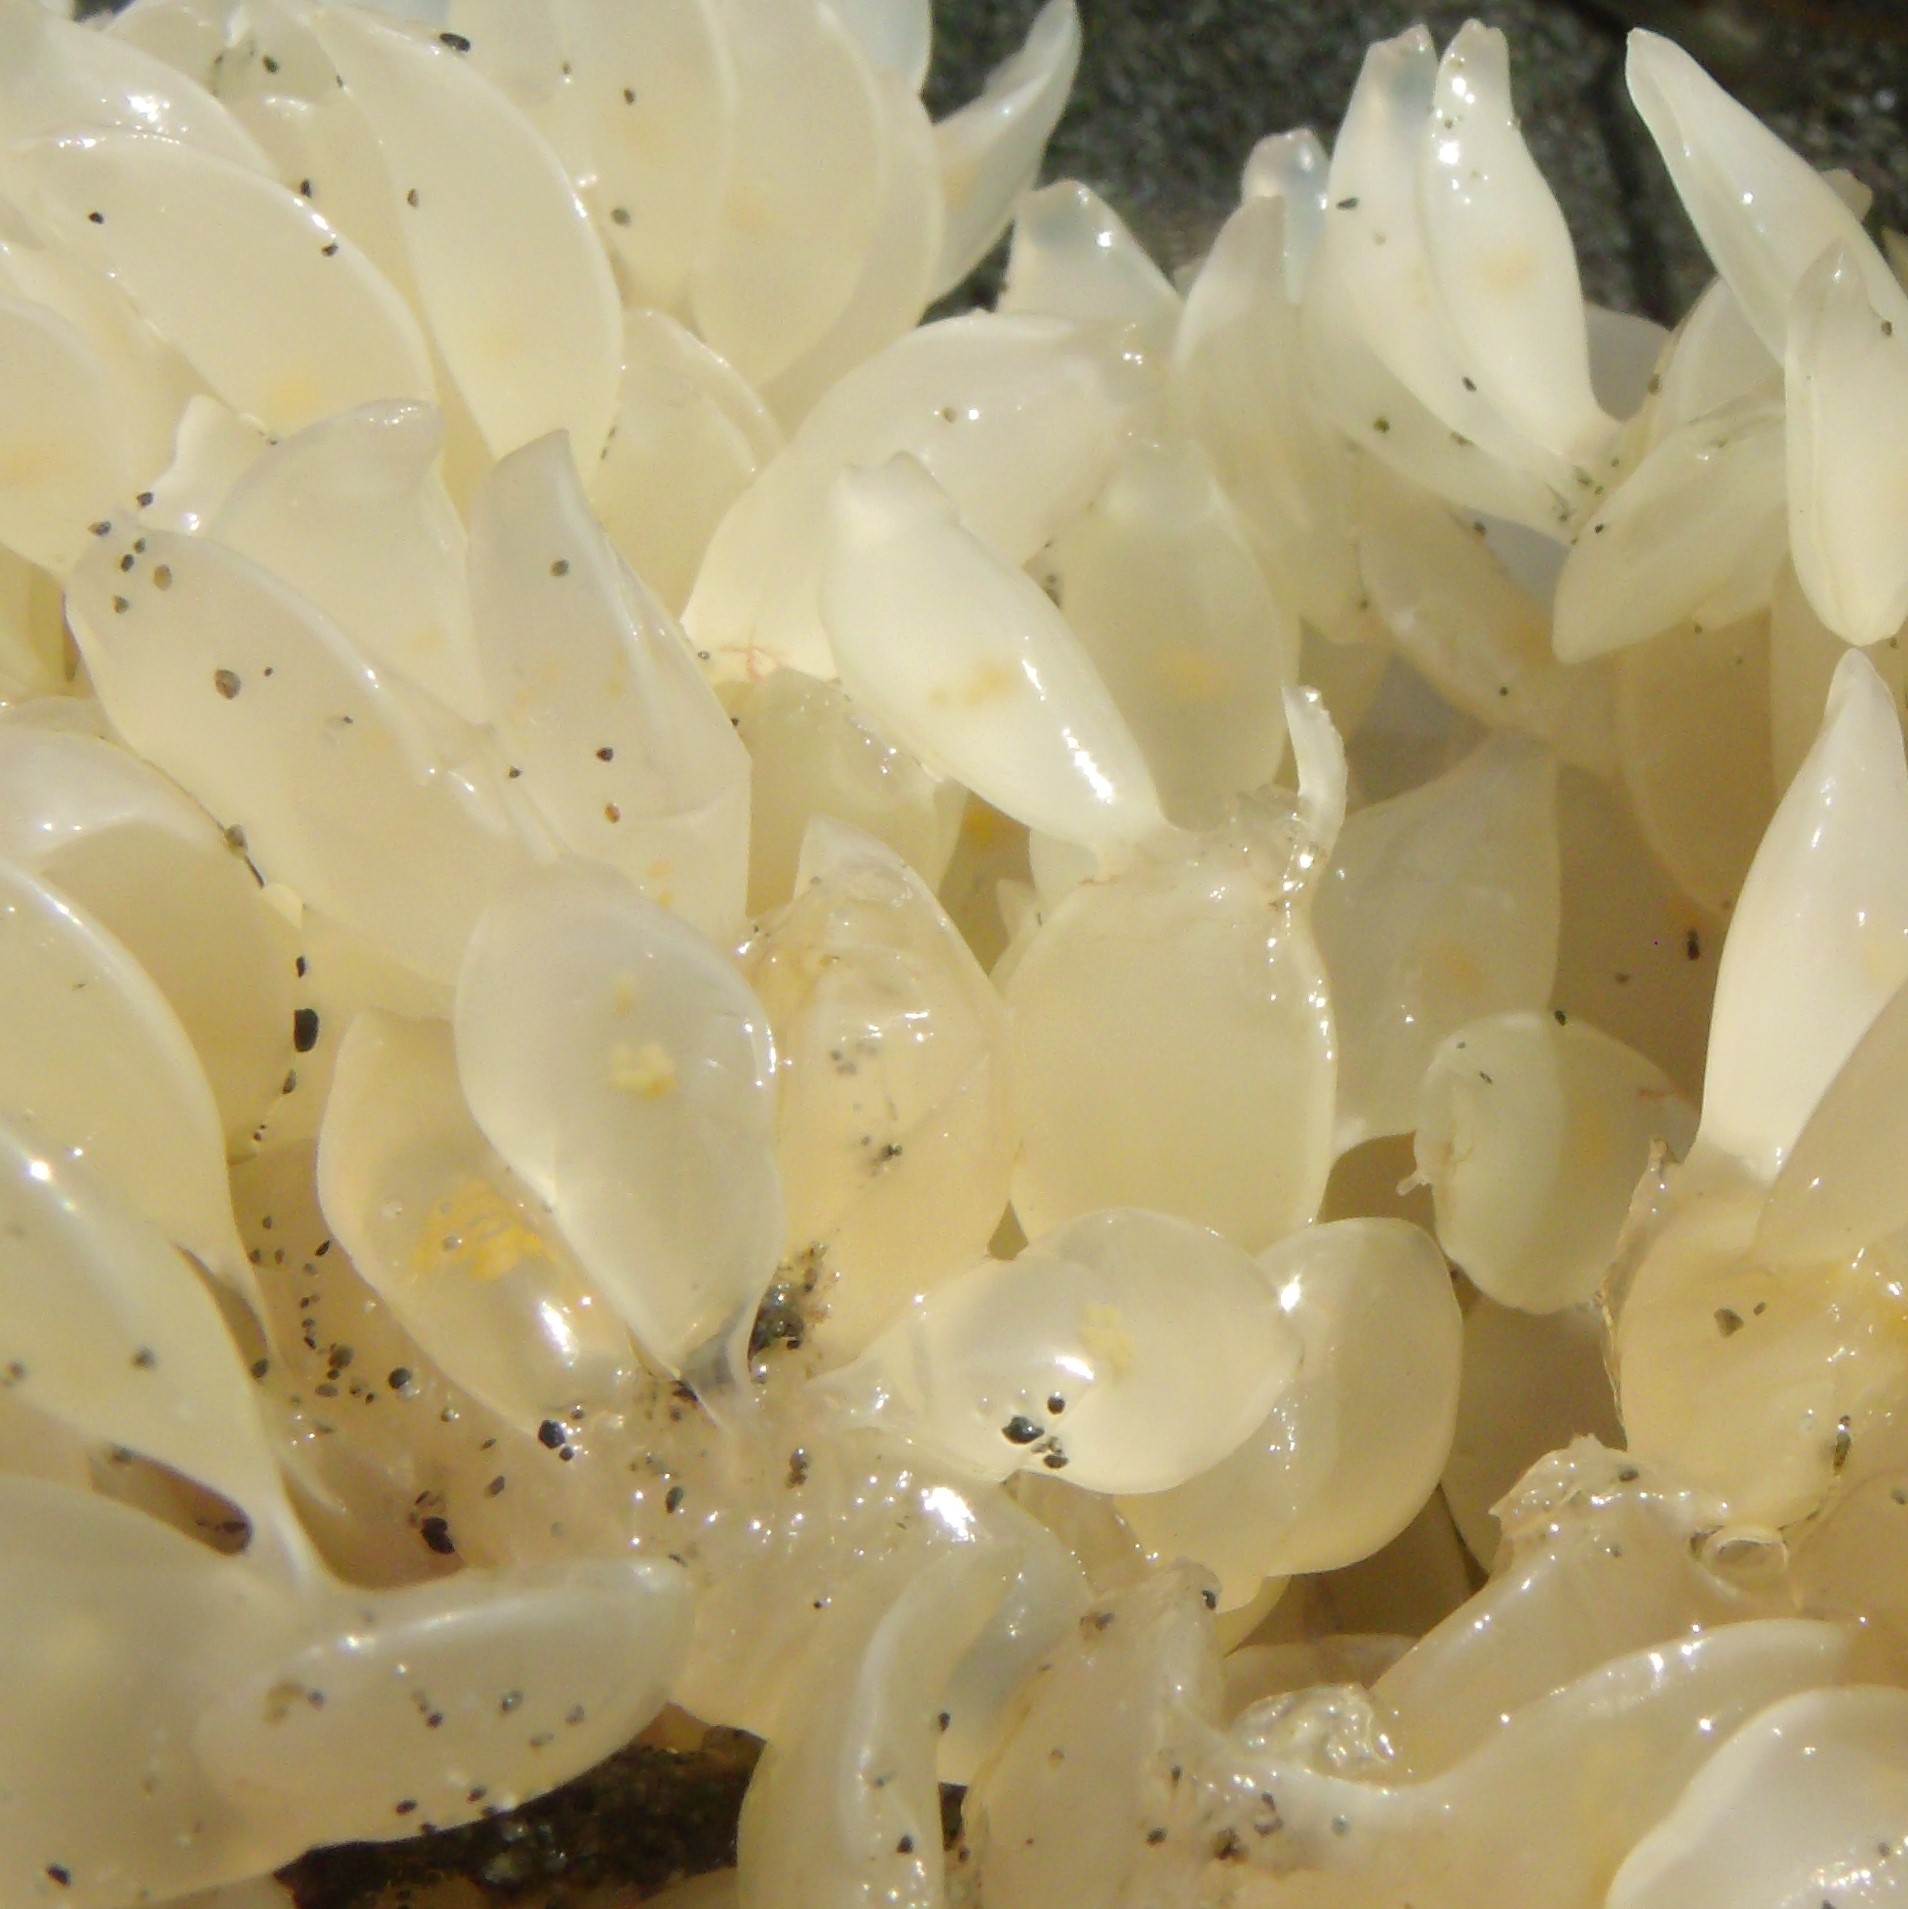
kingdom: Animalia
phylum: Mollusca
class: Gastropoda
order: Neogastropoda
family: Cominellidae
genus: Cominella
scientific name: Cominella adspersa
